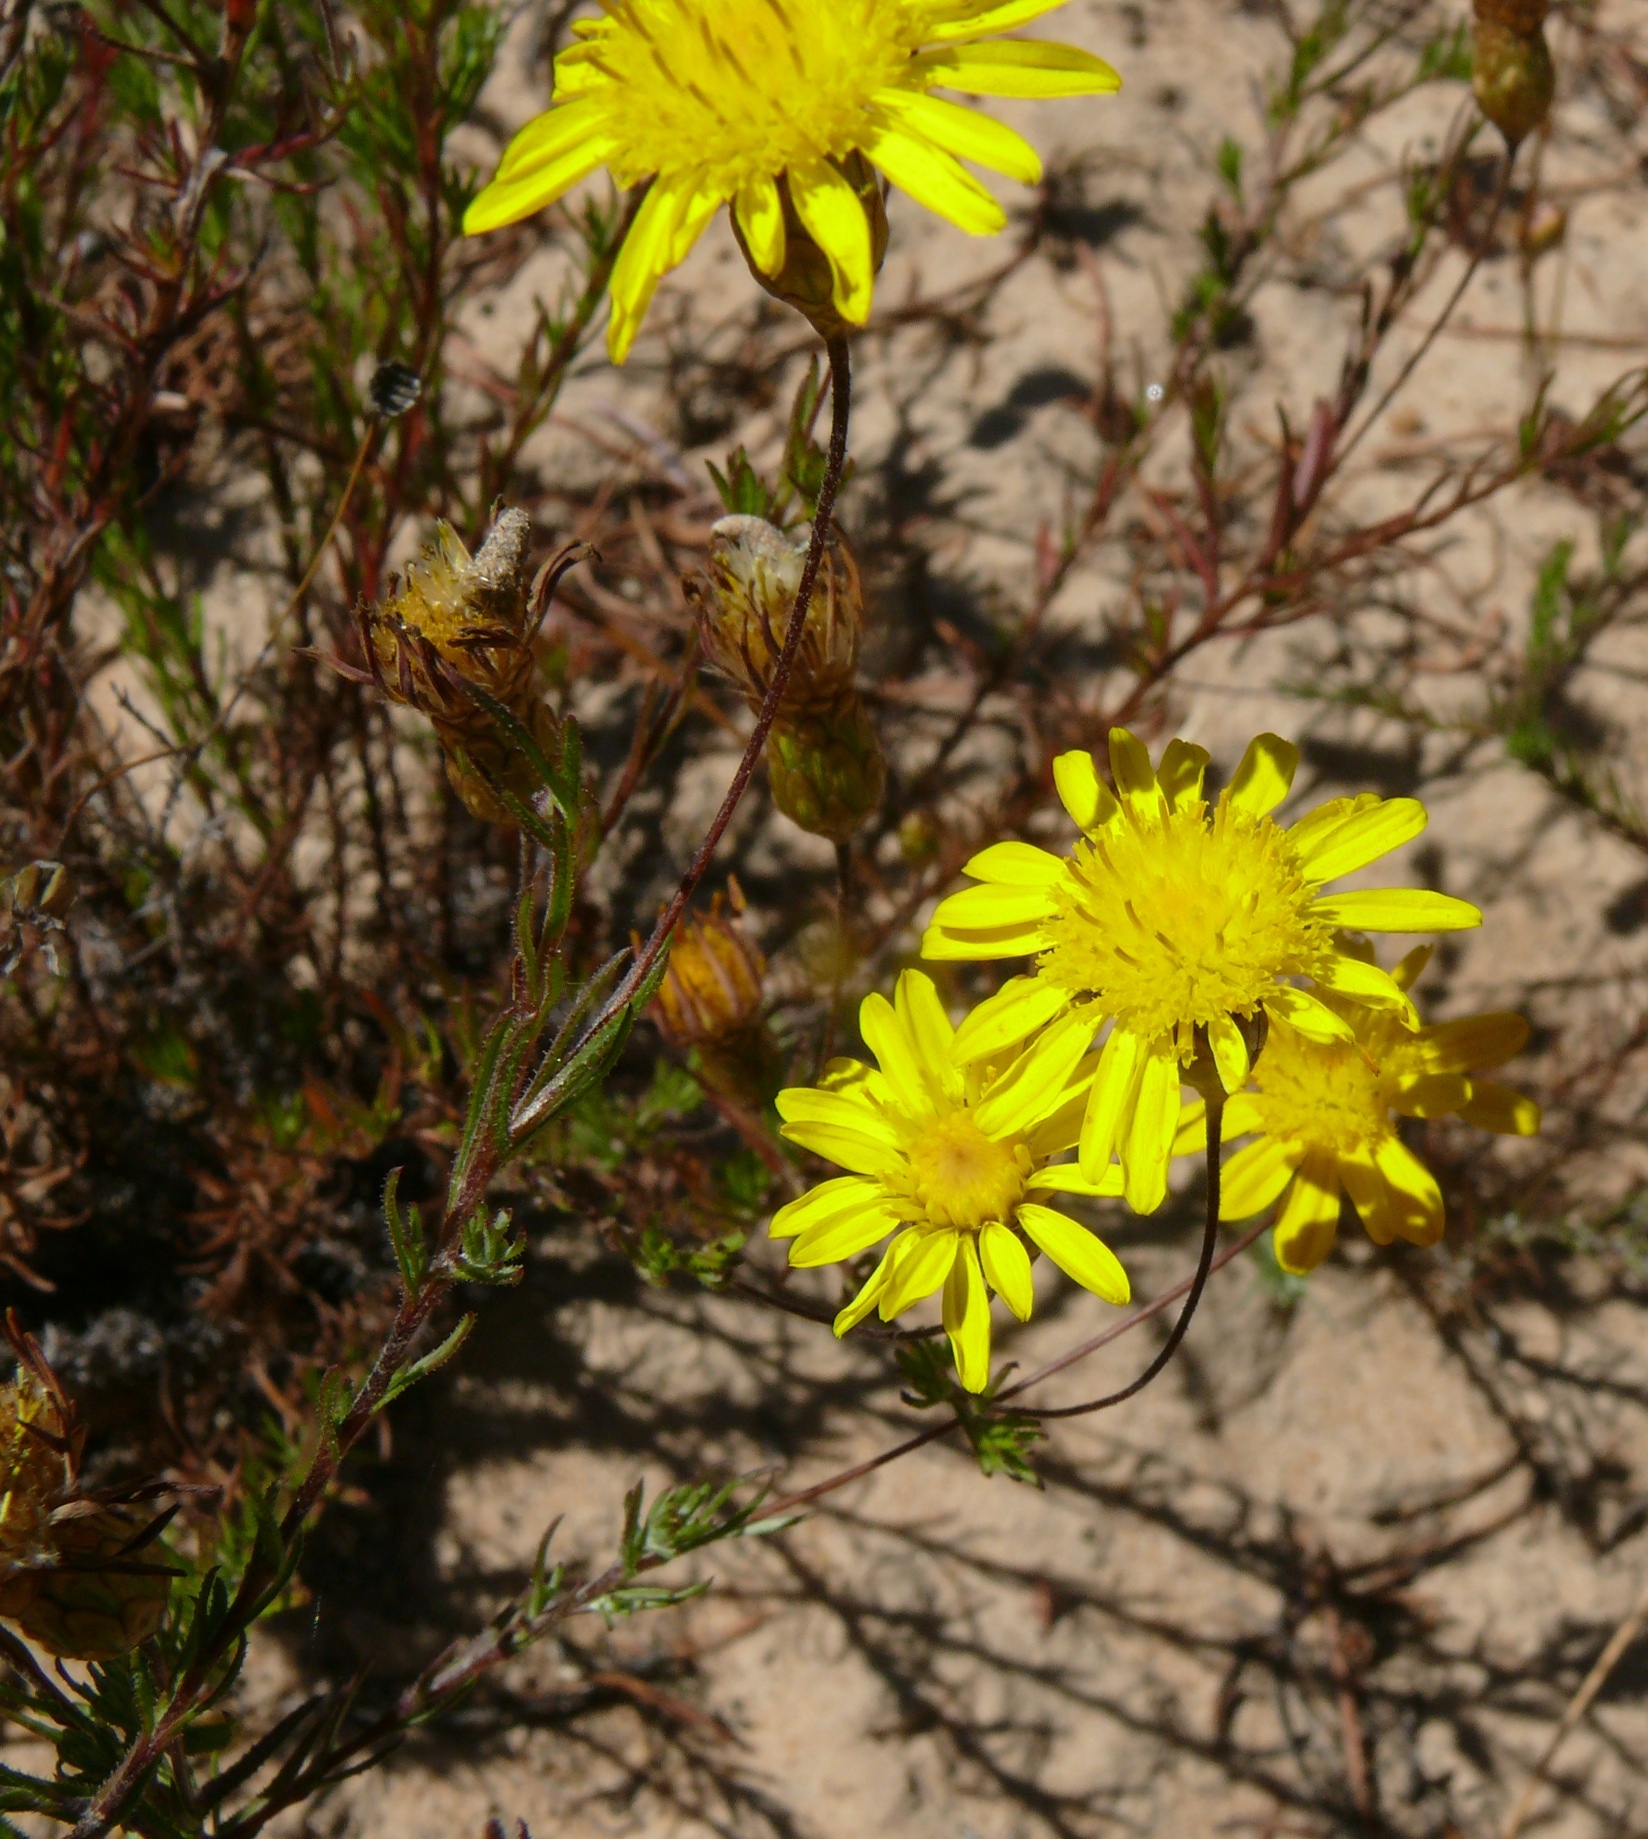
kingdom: Plantae
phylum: Tracheophyta
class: Magnoliopsida
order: Asterales
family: Asteraceae
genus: Leysera
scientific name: Leysera gnaphalodes
